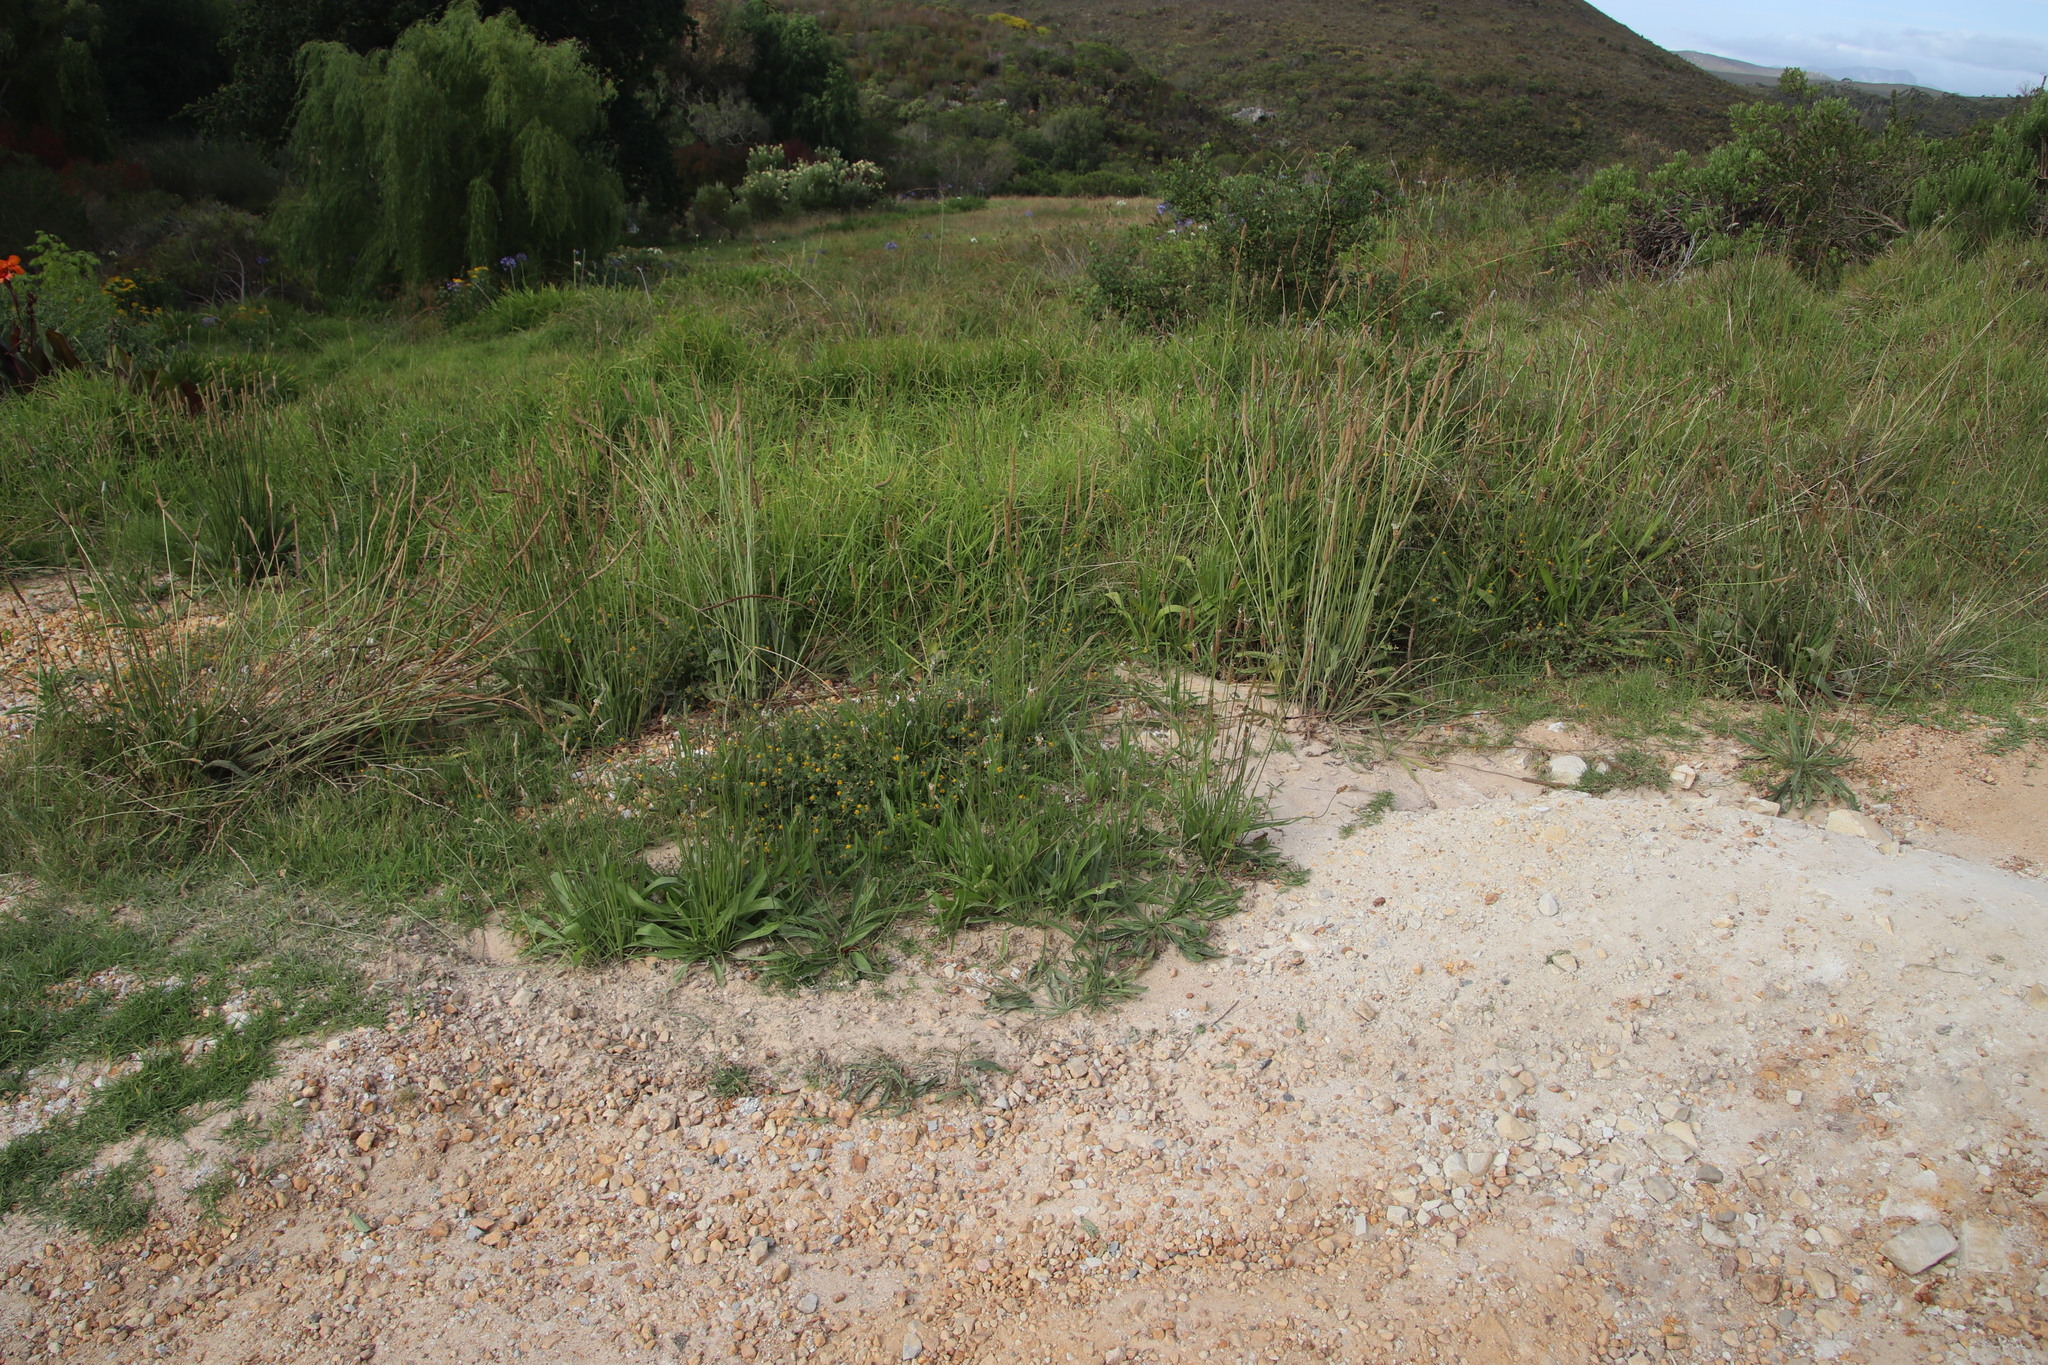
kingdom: Plantae
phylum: Tracheophyta
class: Magnoliopsida
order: Lamiales
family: Plantaginaceae
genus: Plantago
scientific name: Plantago lanceolata
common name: Ribwort plantain
